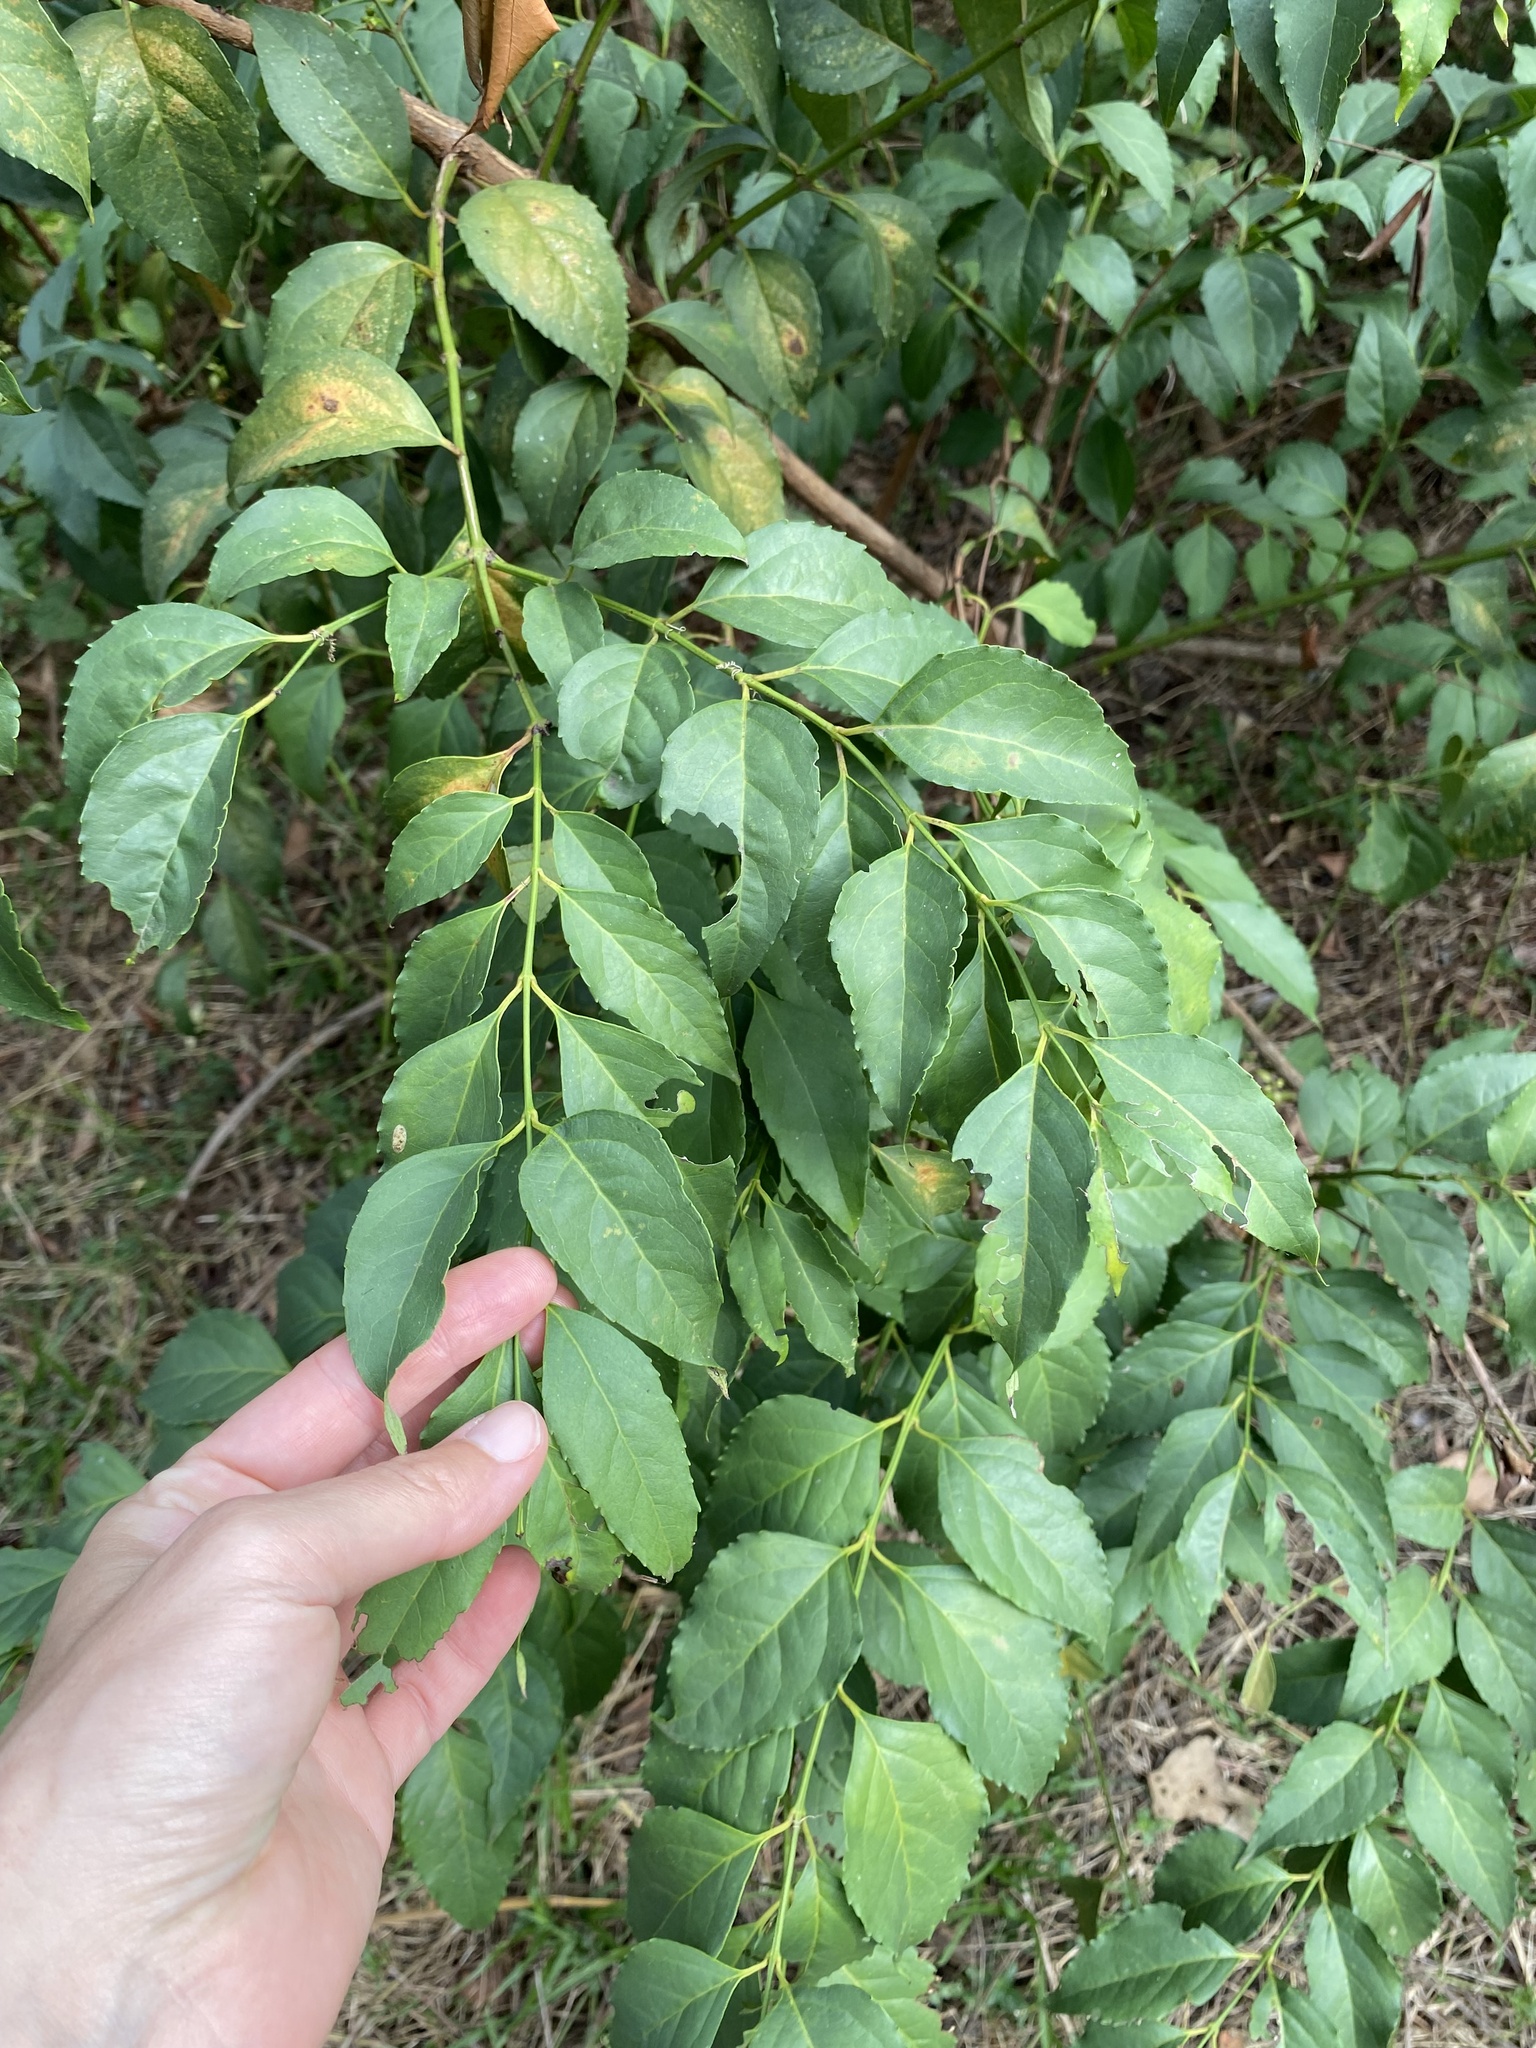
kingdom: Plantae
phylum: Tracheophyta
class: Magnoliopsida
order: Lamiales
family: Stilbaceae
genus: Halleria
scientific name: Halleria lucida
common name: Tree fuschia
